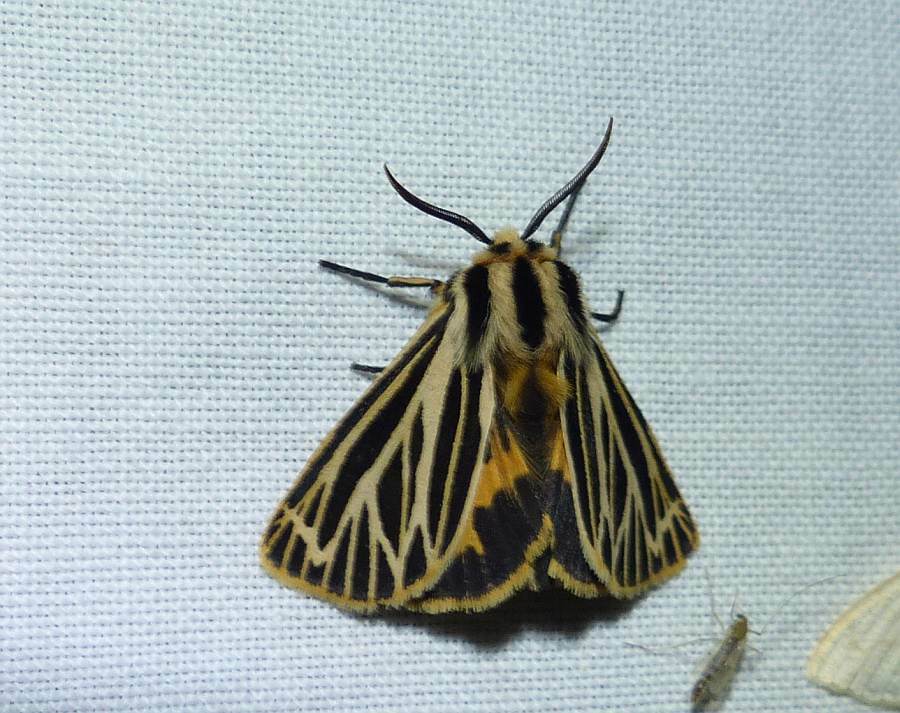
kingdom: Animalia
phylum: Arthropoda
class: Insecta
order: Lepidoptera
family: Erebidae
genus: Grammia
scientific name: Grammia virguncula
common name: Little tiger moth
